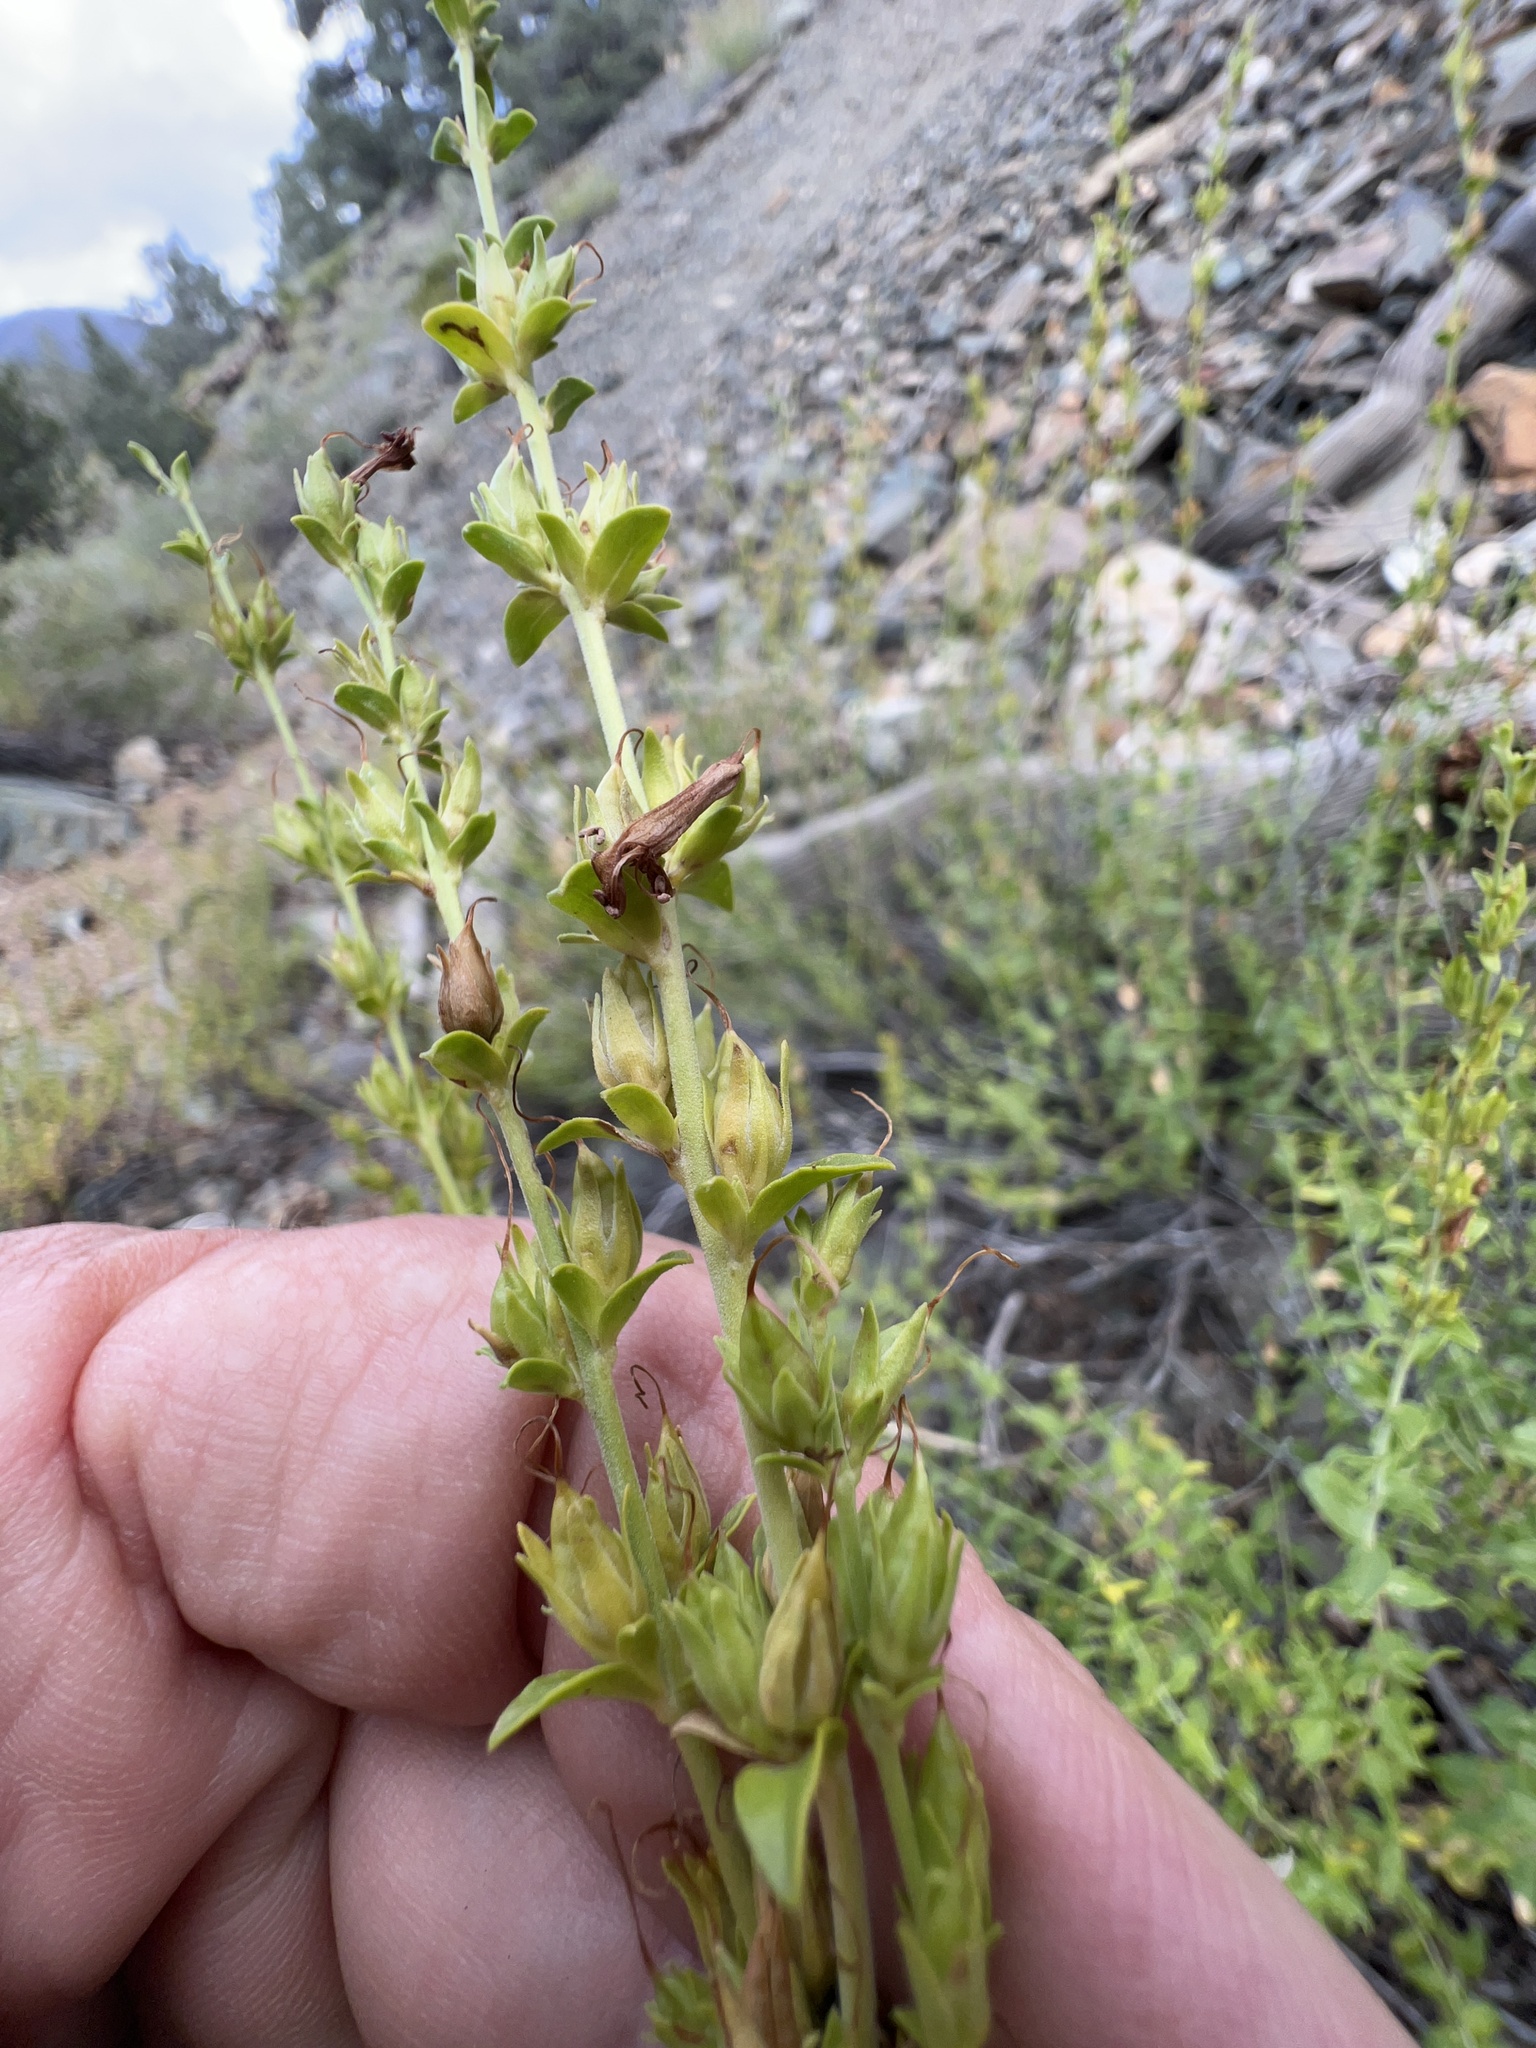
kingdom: Plantae
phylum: Tracheophyta
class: Magnoliopsida
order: Lamiales
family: Plantaginaceae
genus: Keckiella
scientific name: Keckiella rothrockii
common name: Rothrock's keckiella
